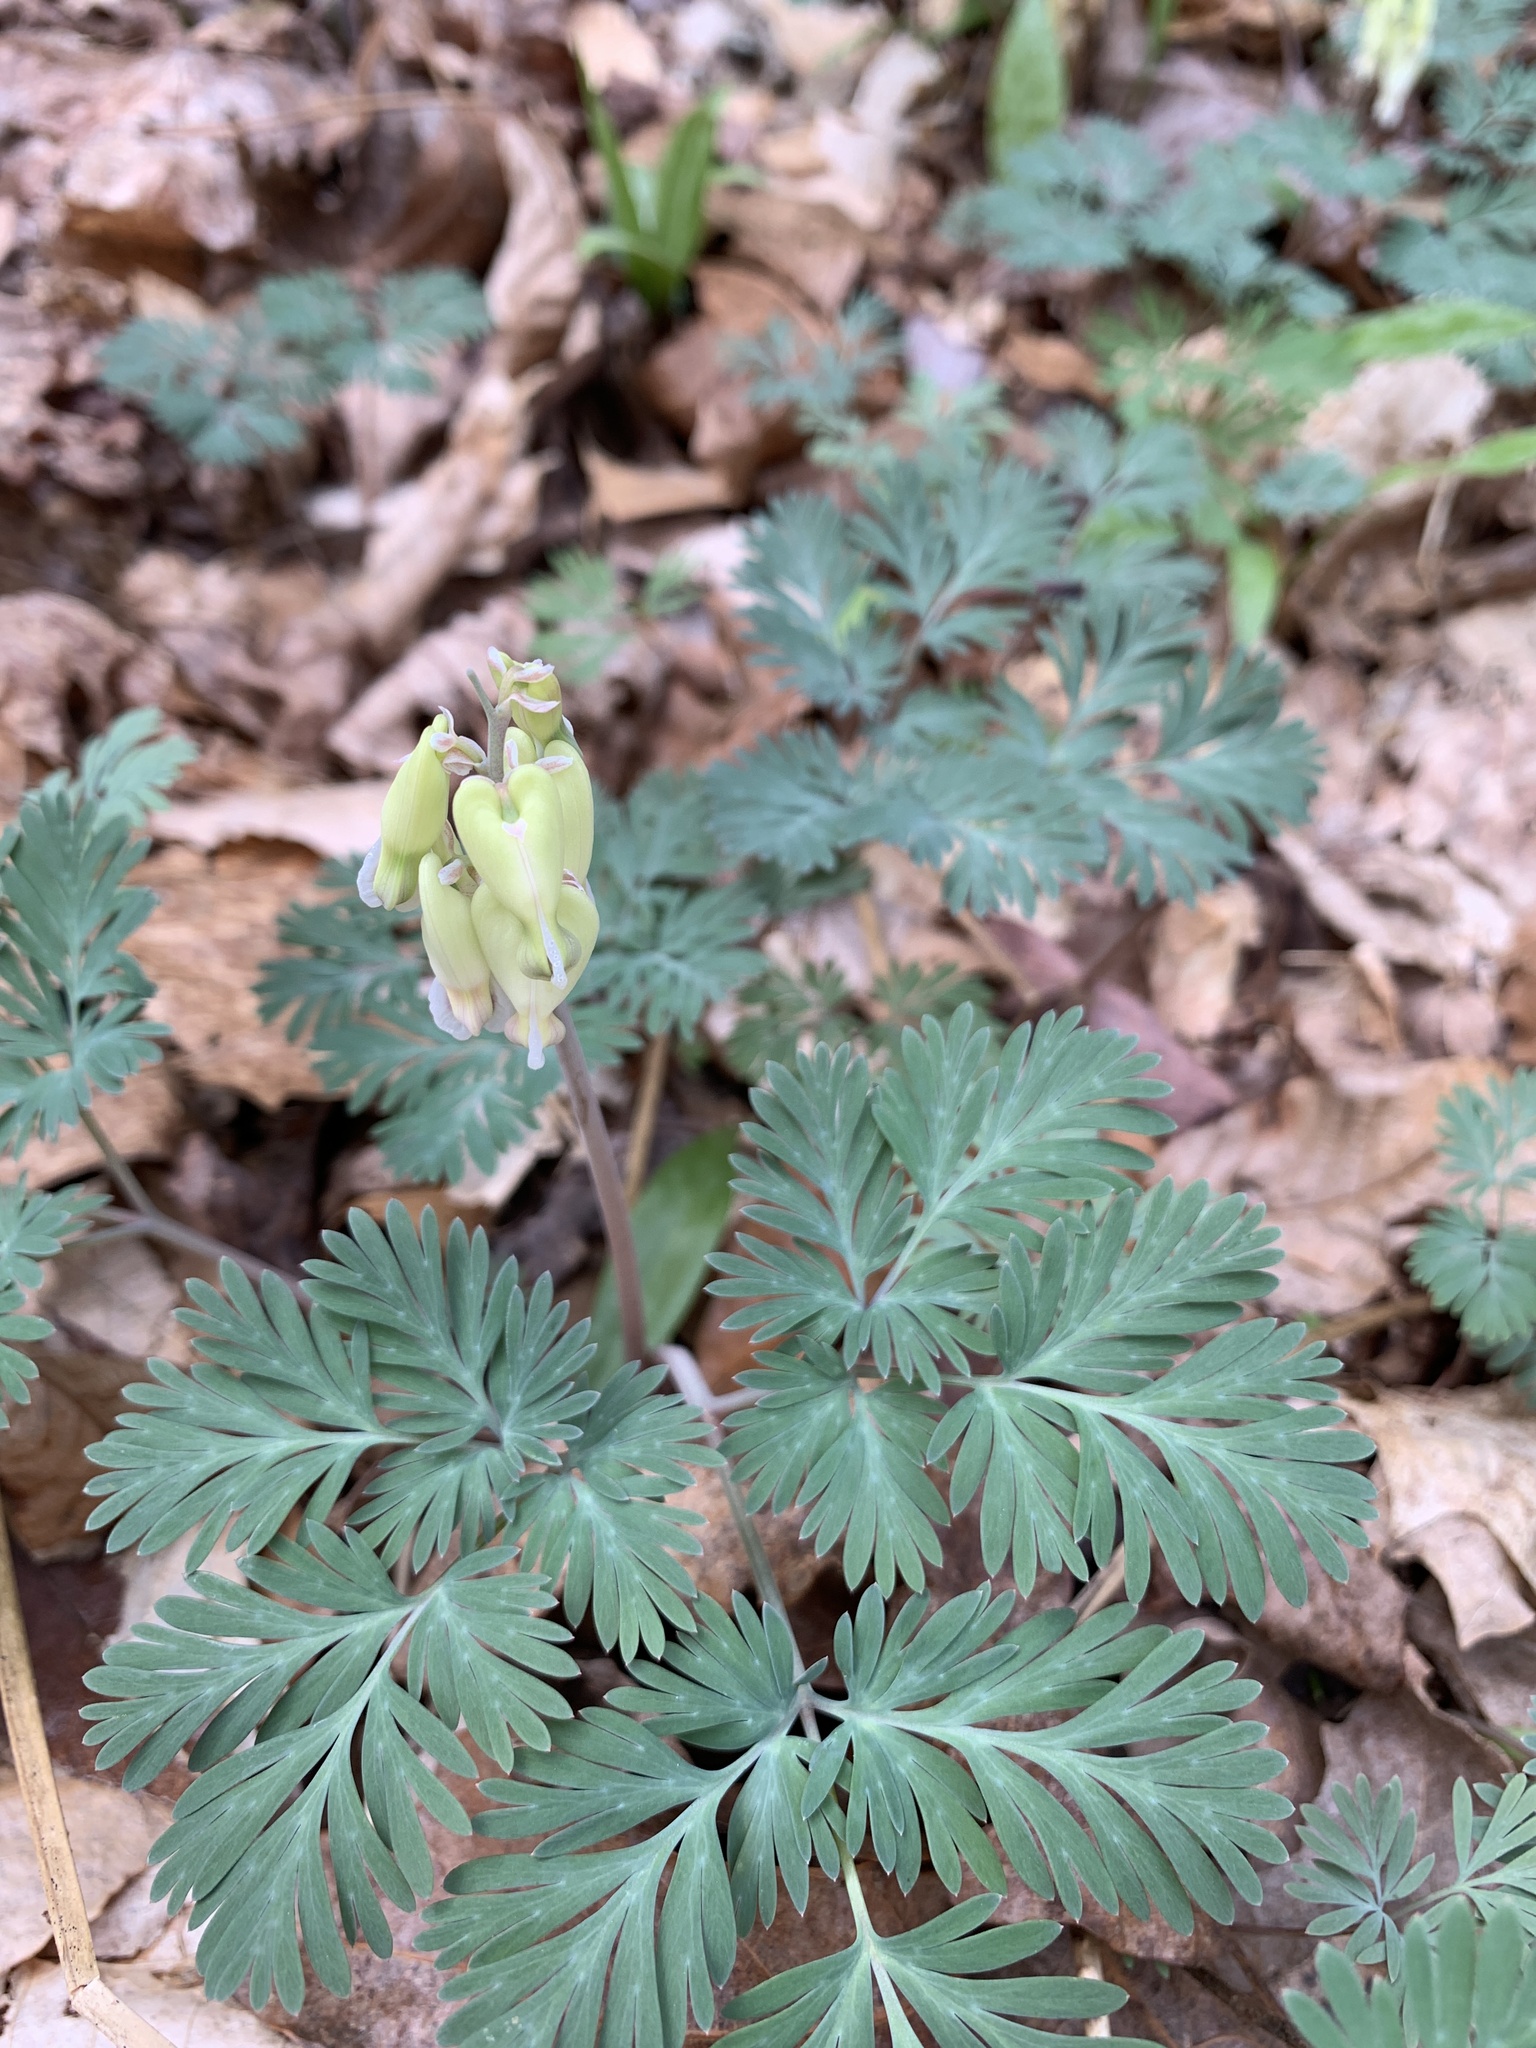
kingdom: Plantae
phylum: Tracheophyta
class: Magnoliopsida
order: Ranunculales
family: Papaveraceae
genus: Dicentra
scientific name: Dicentra canadensis
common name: Squirrel-corn
